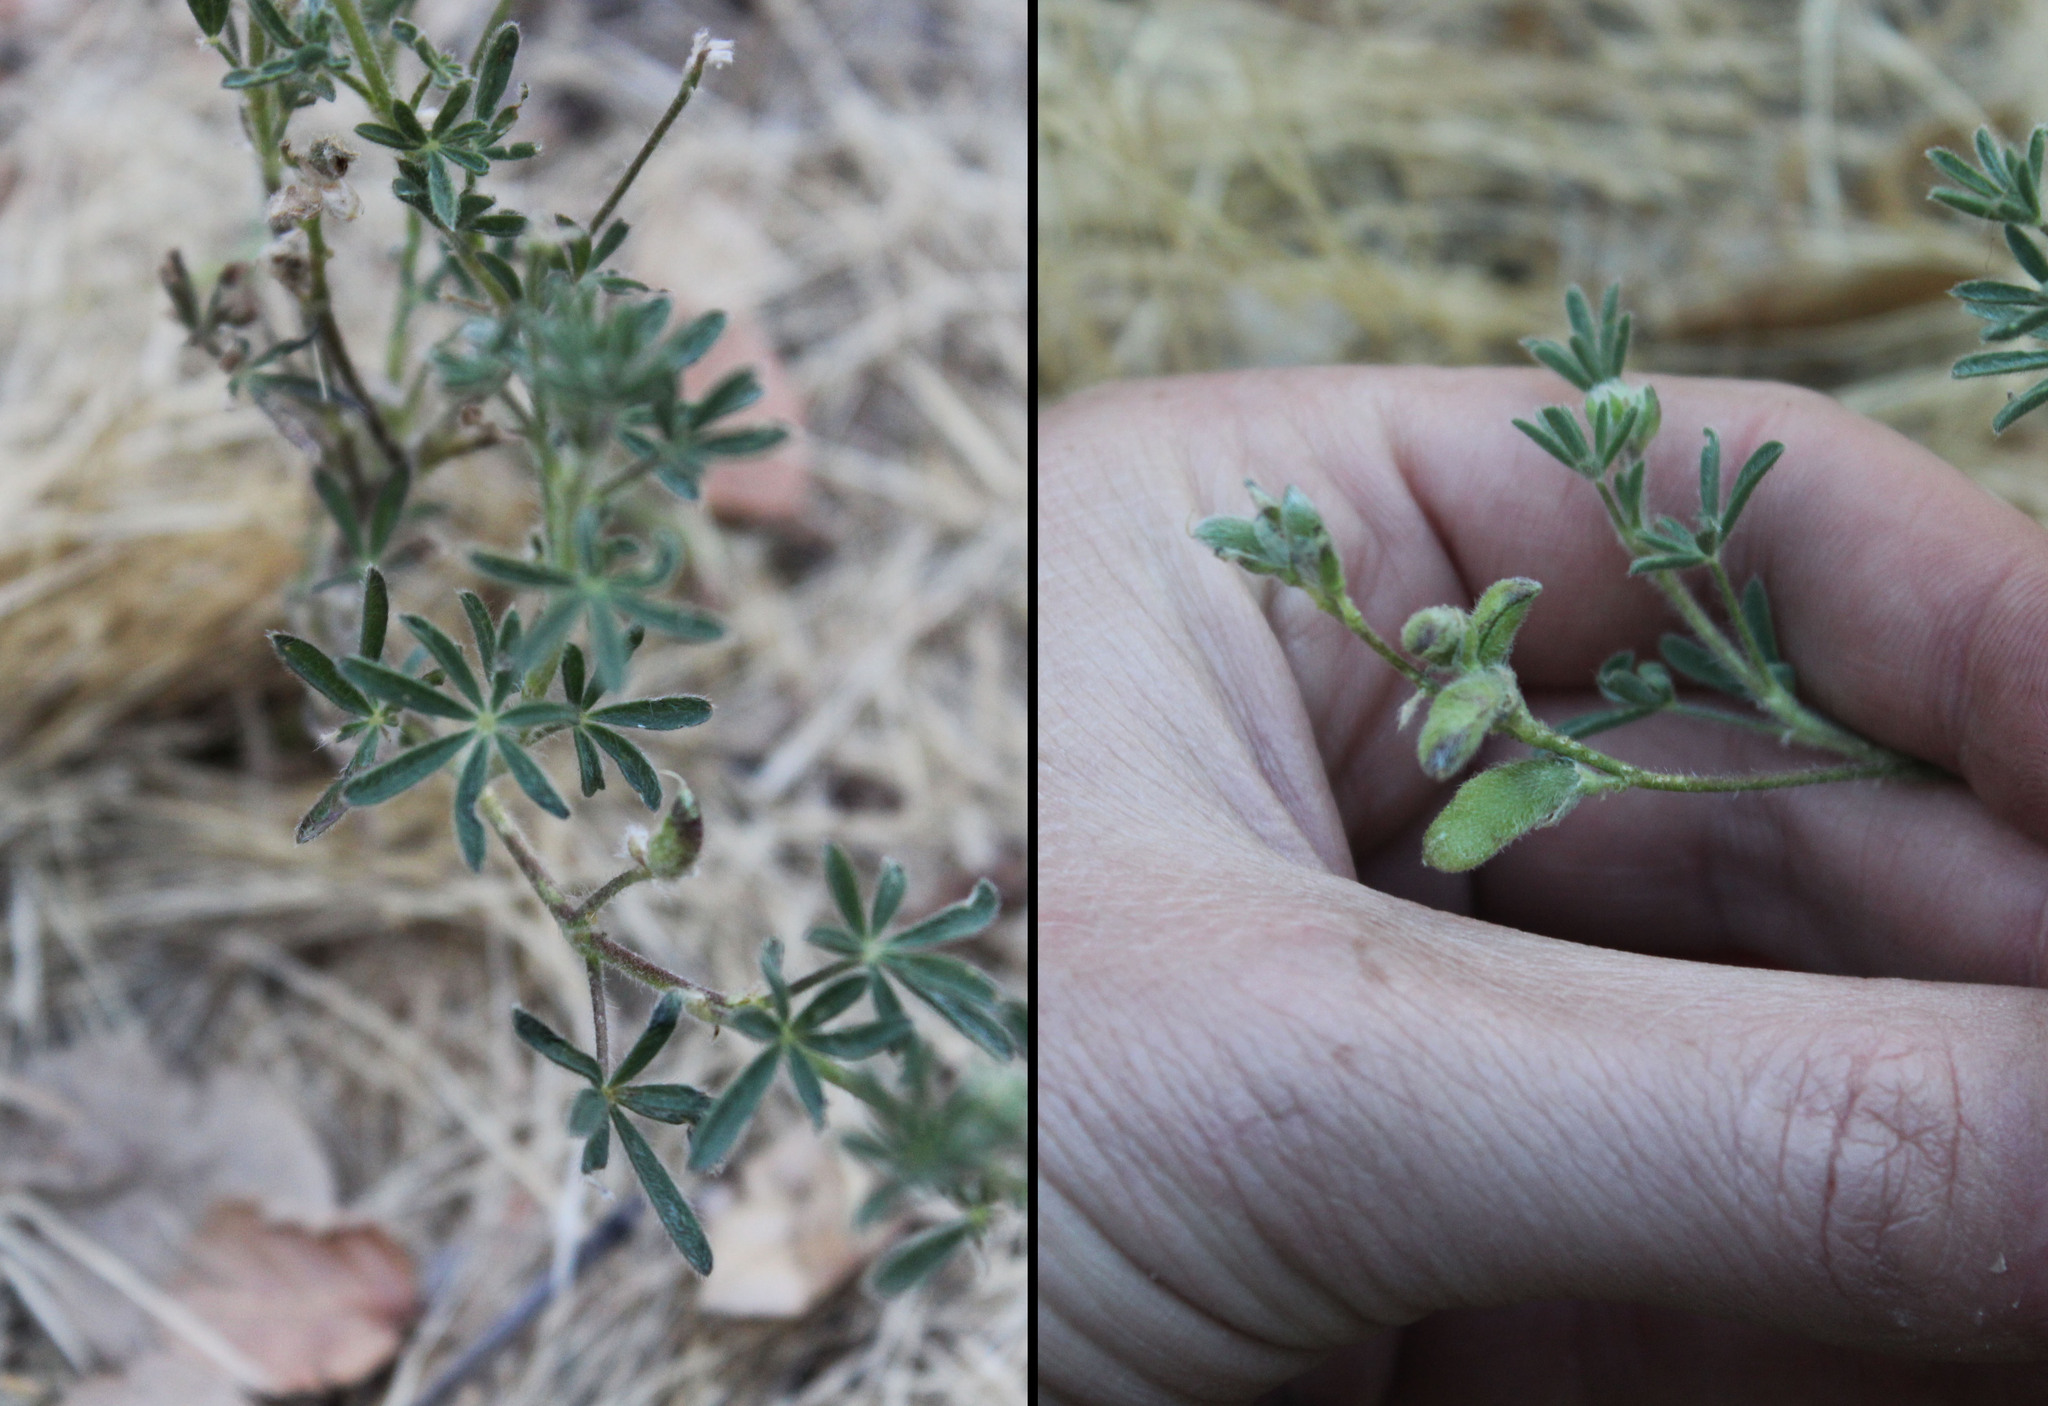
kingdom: Plantae
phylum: Tracheophyta
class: Magnoliopsida
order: Fabales
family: Fabaceae
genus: Lupinus
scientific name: Lupinus bicolor
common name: Miniature lupine
